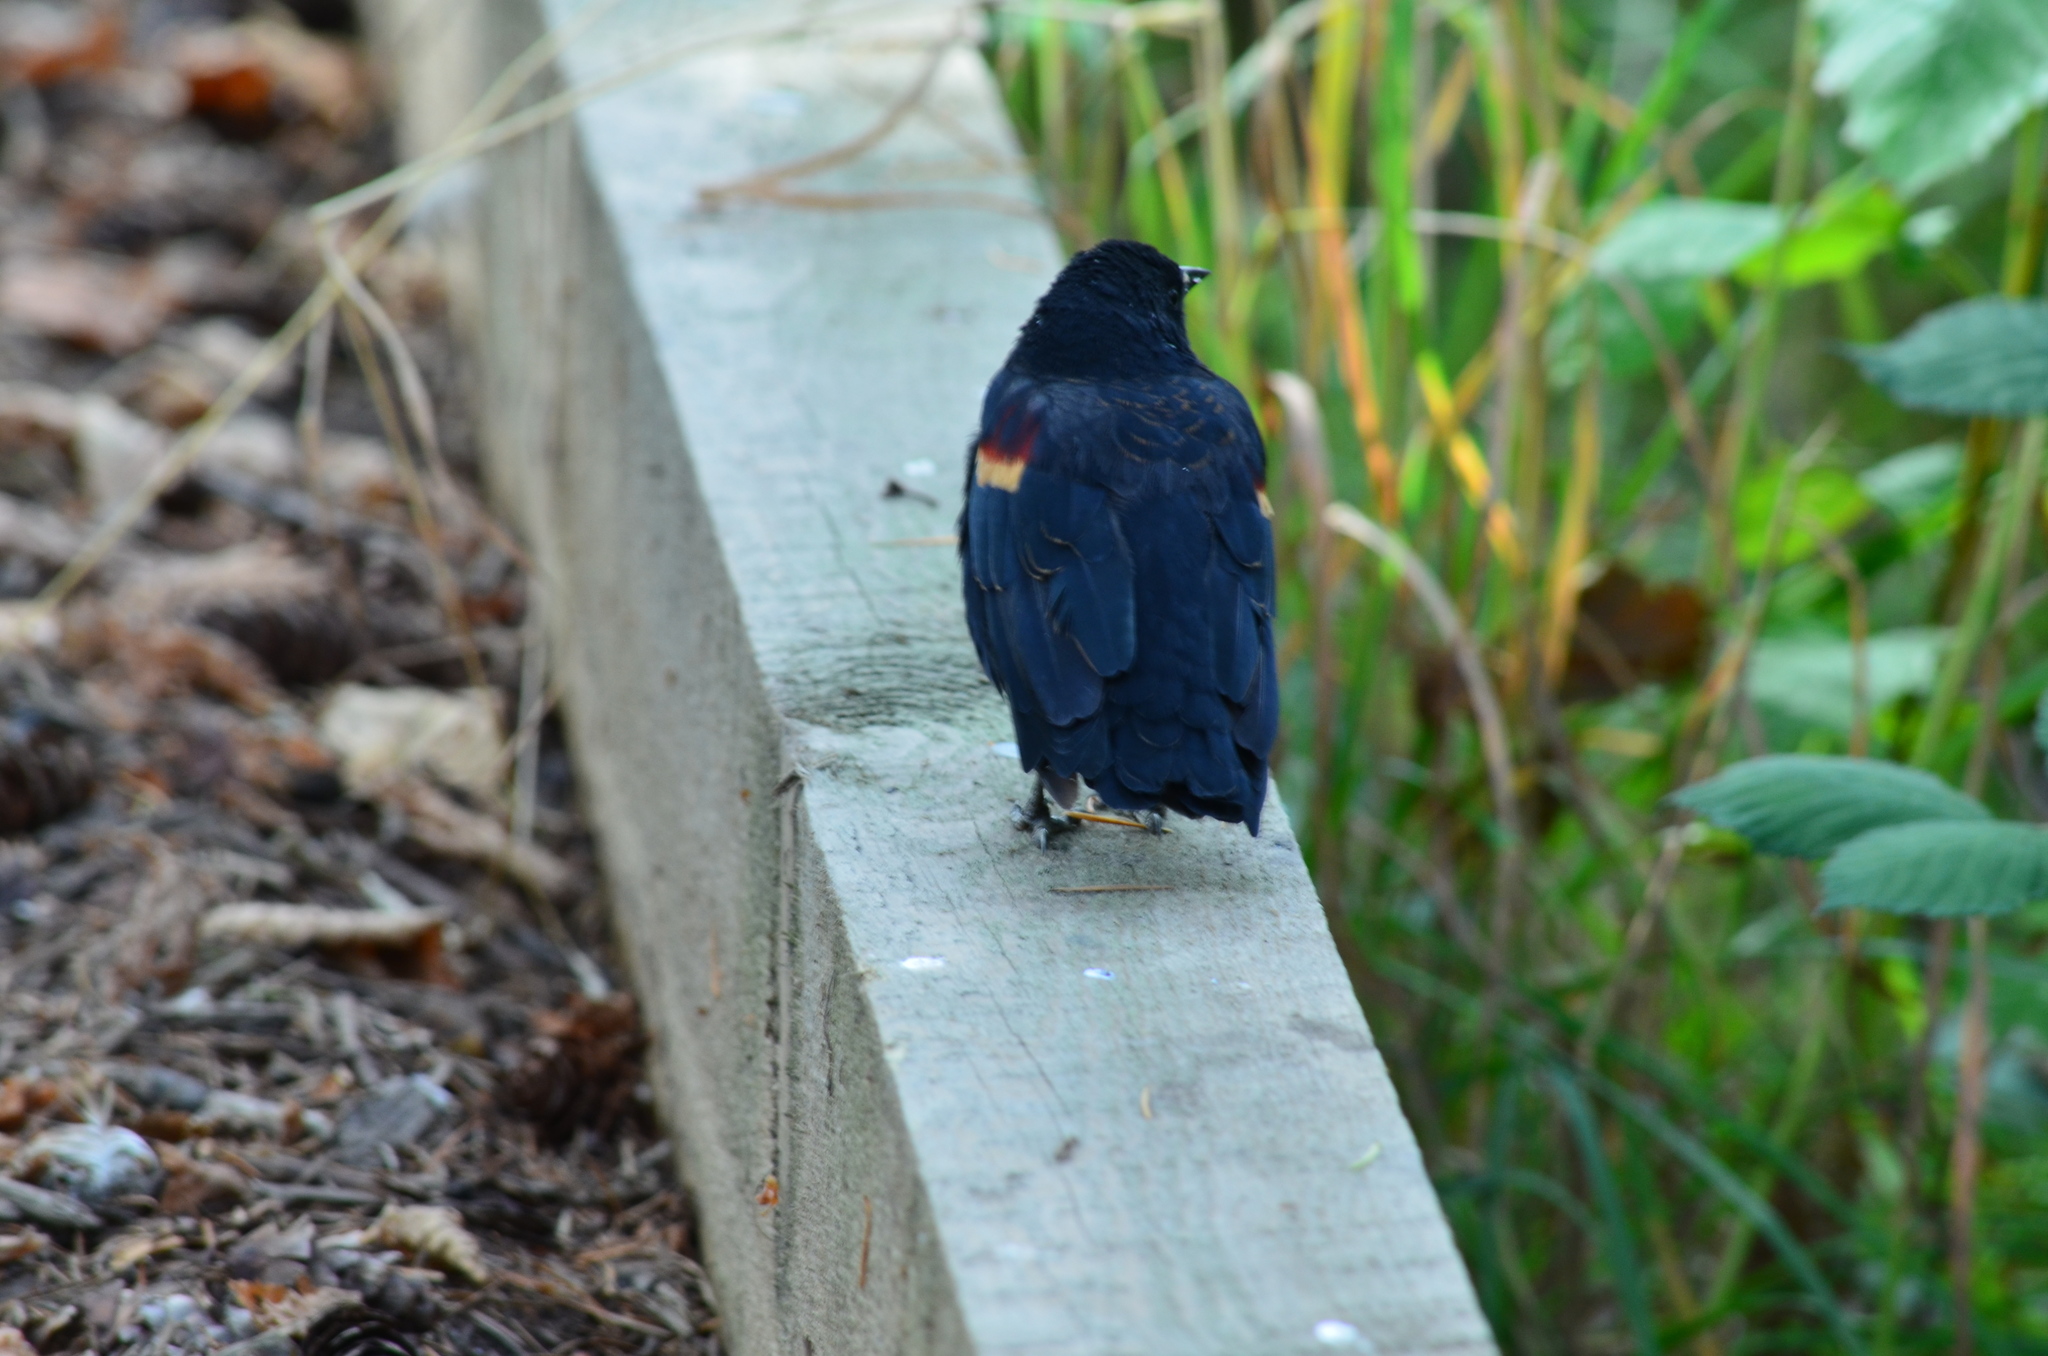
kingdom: Animalia
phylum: Chordata
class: Aves
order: Passeriformes
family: Icteridae
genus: Agelaius
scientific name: Agelaius phoeniceus
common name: Red-winged blackbird
